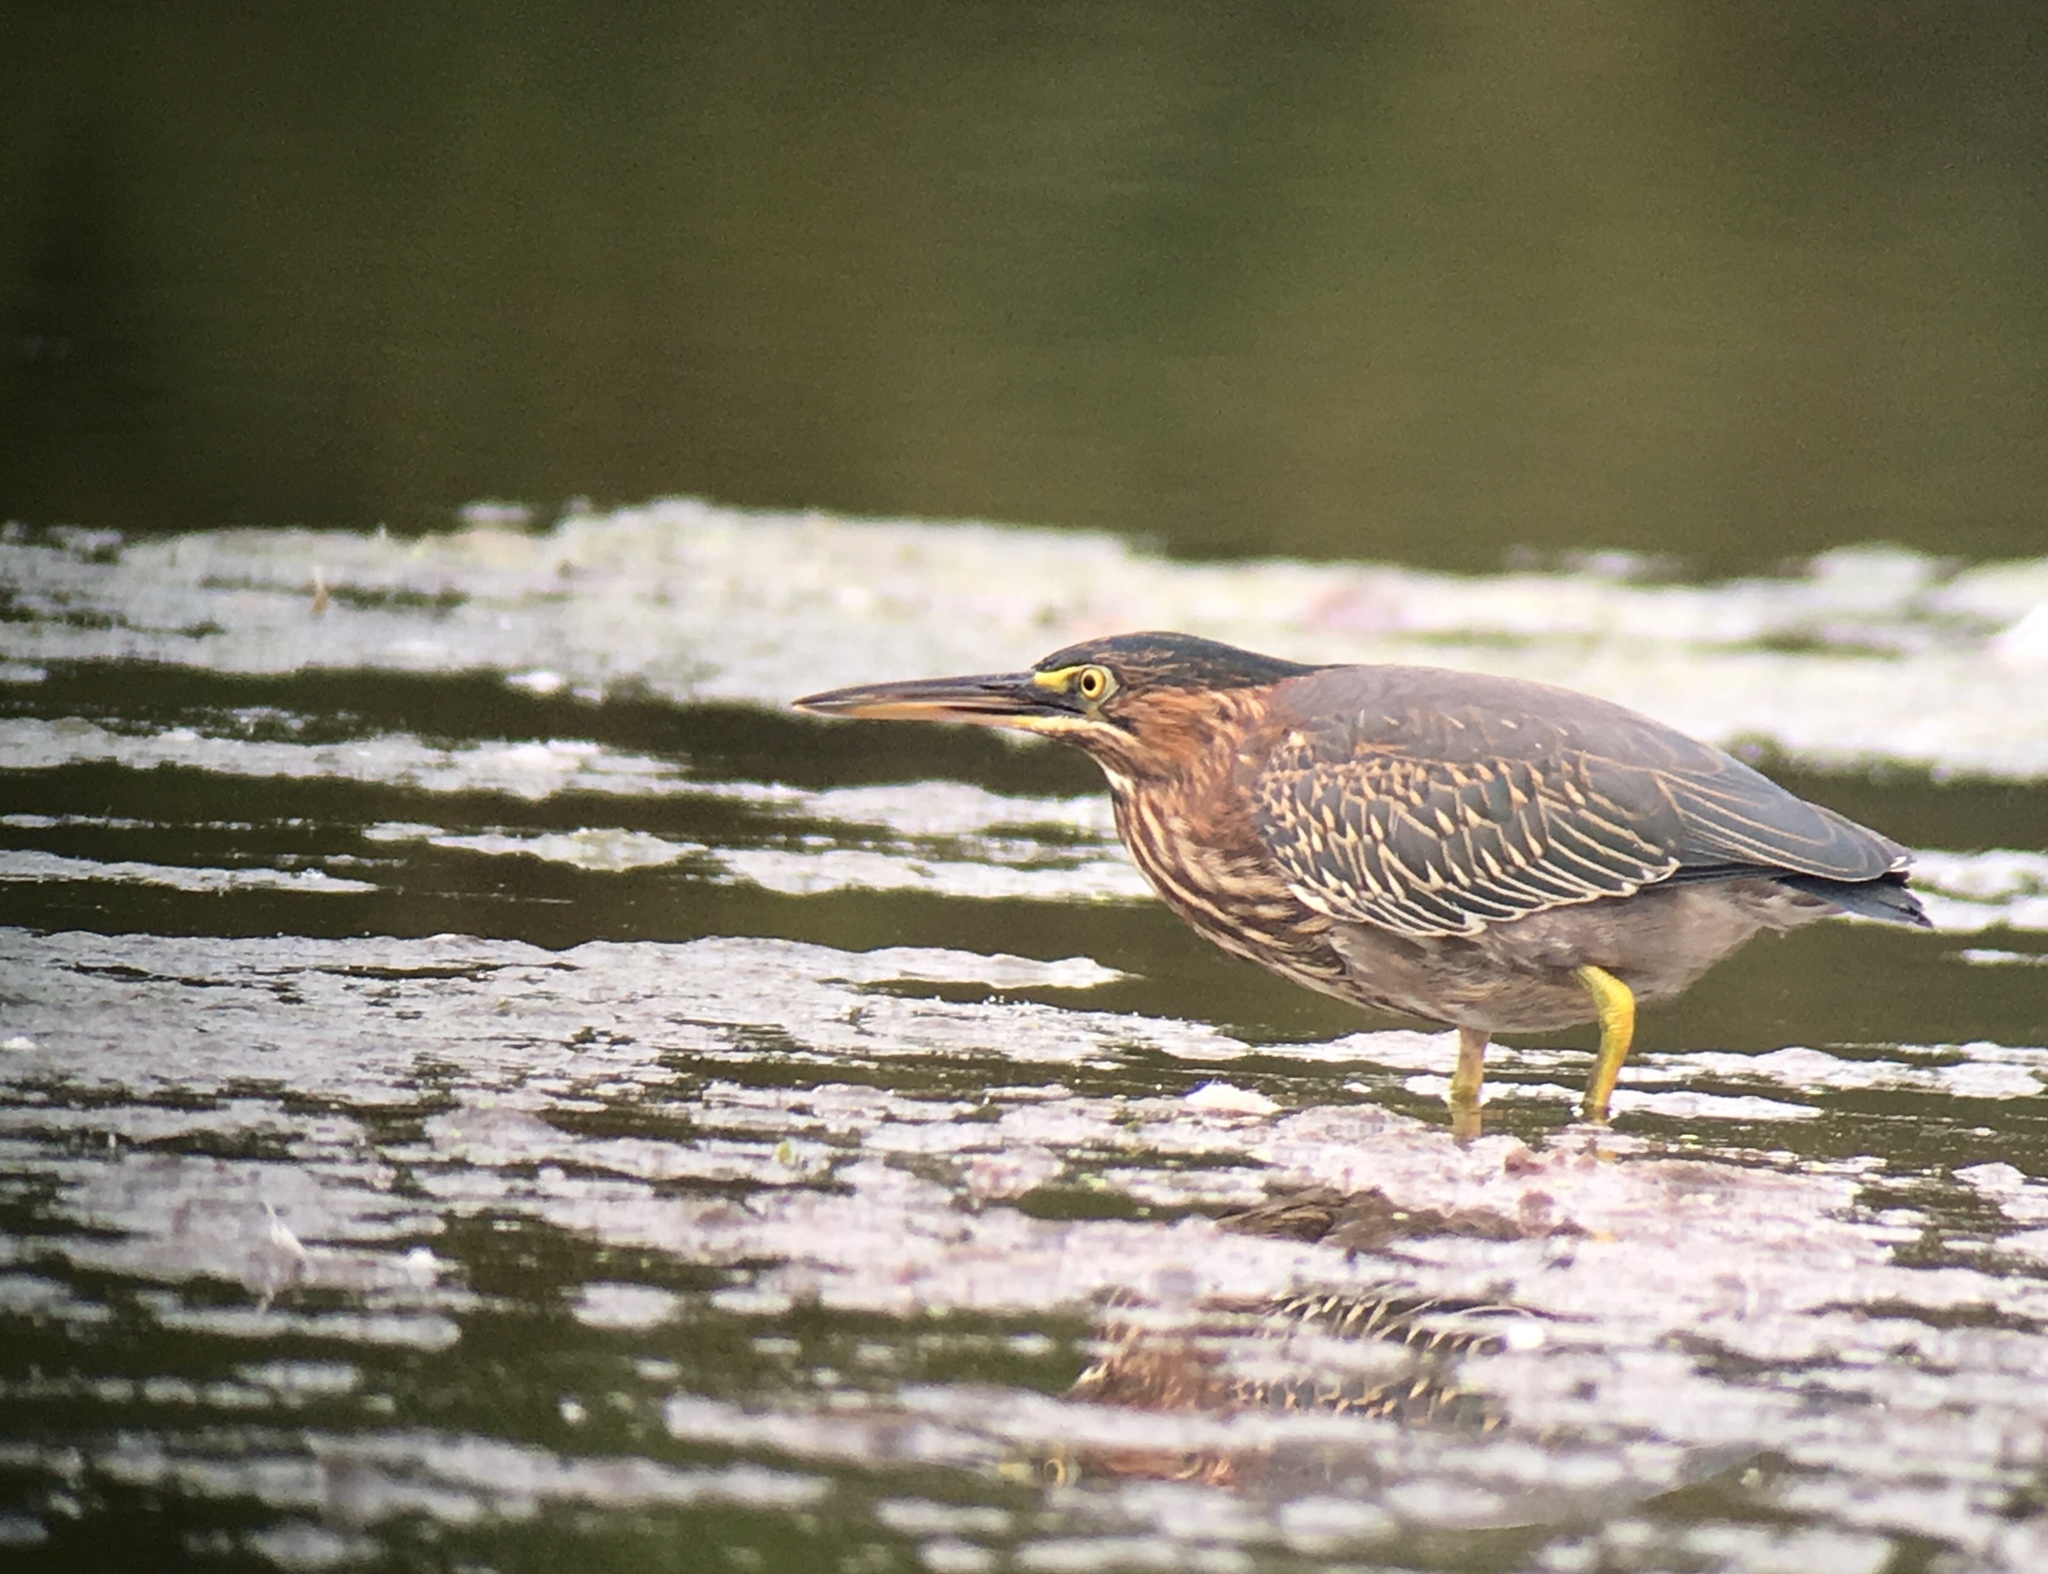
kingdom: Animalia
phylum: Chordata
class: Aves
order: Pelecaniformes
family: Ardeidae
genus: Butorides
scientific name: Butorides virescens
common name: Green heron
